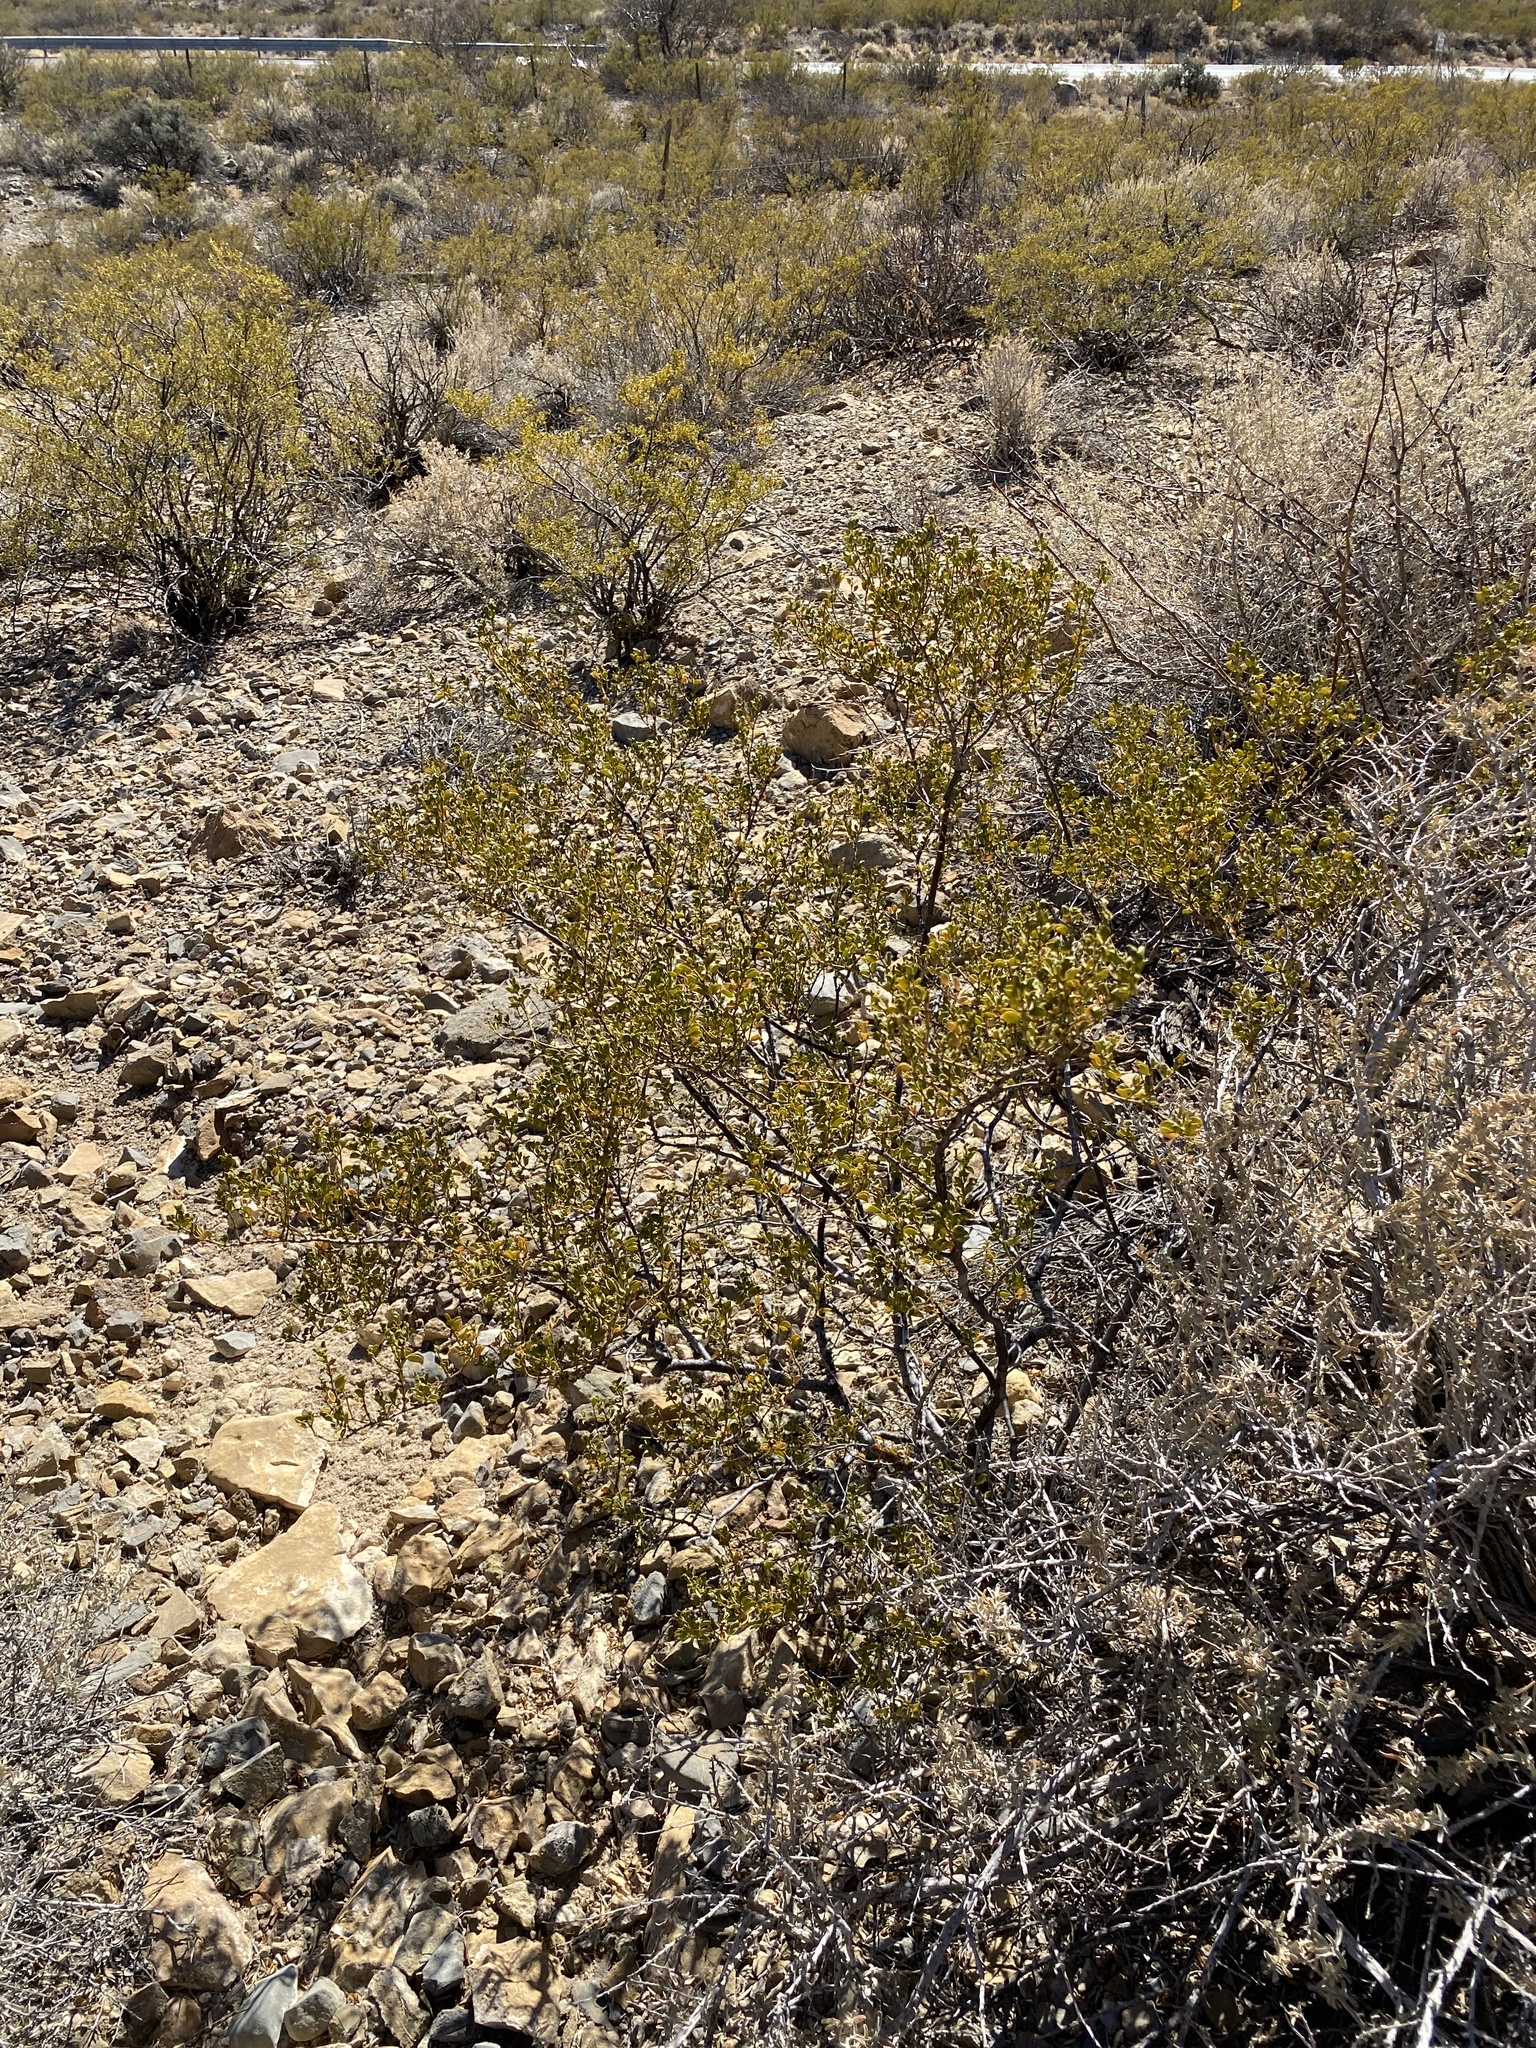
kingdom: Plantae
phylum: Tracheophyta
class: Magnoliopsida
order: Zygophyllales
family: Zygophyllaceae
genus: Larrea
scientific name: Larrea tridentata
